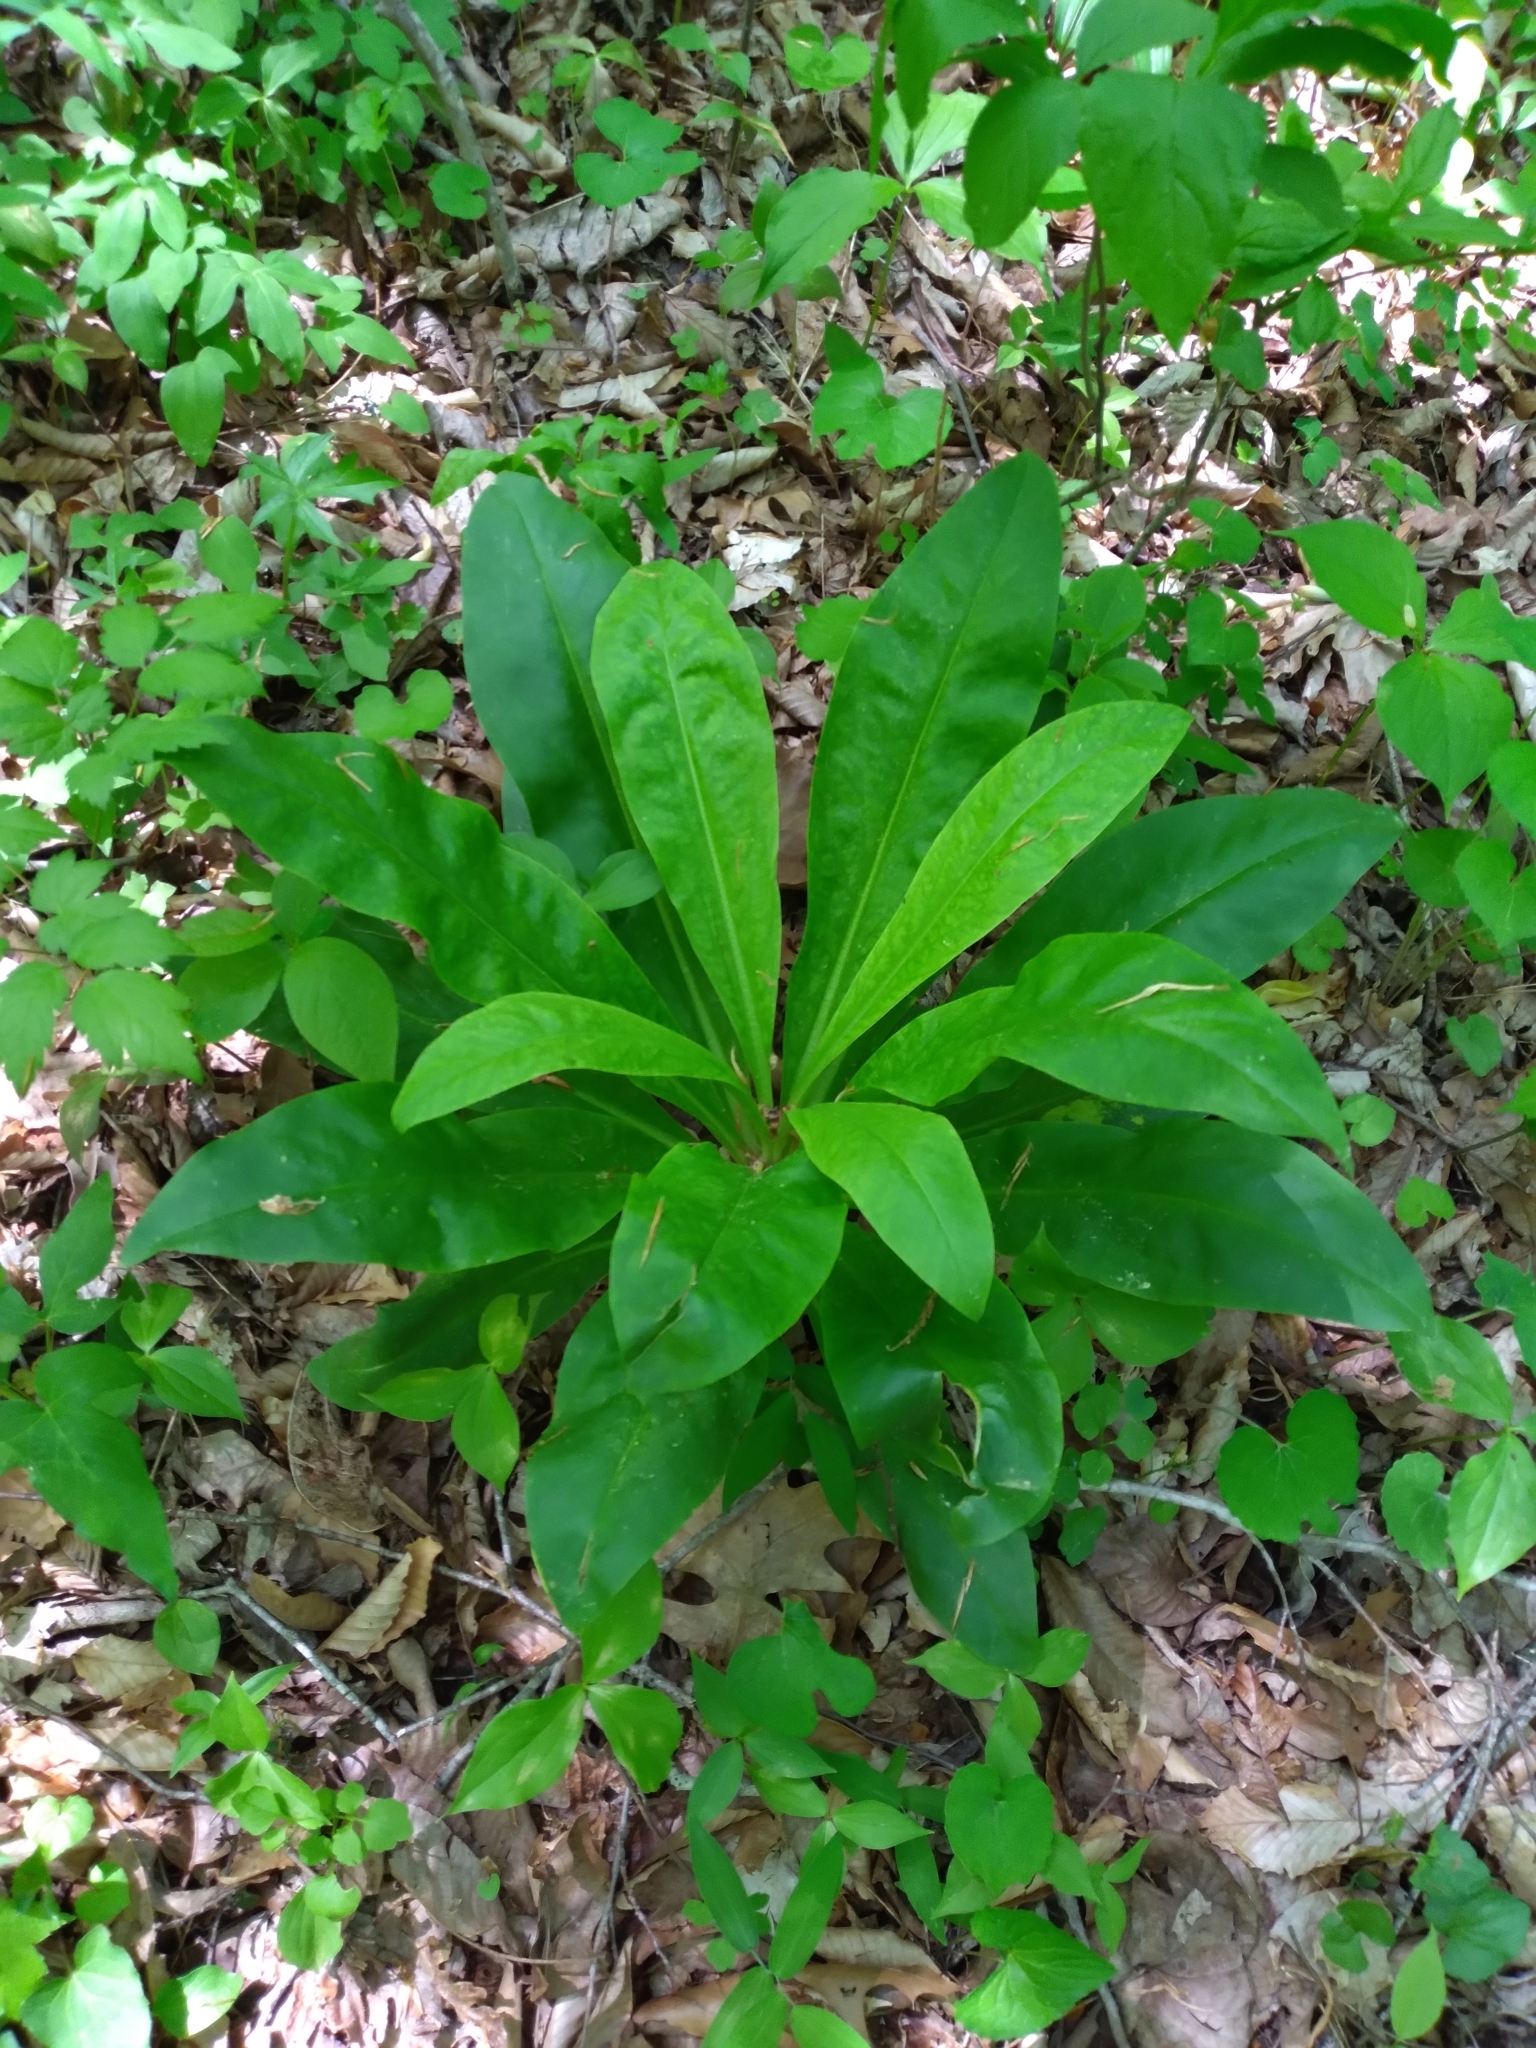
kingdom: Plantae
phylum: Tracheophyta
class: Magnoliopsida
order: Gentianales
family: Gentianaceae
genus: Frasera
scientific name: Frasera caroliniensis
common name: American columbo
